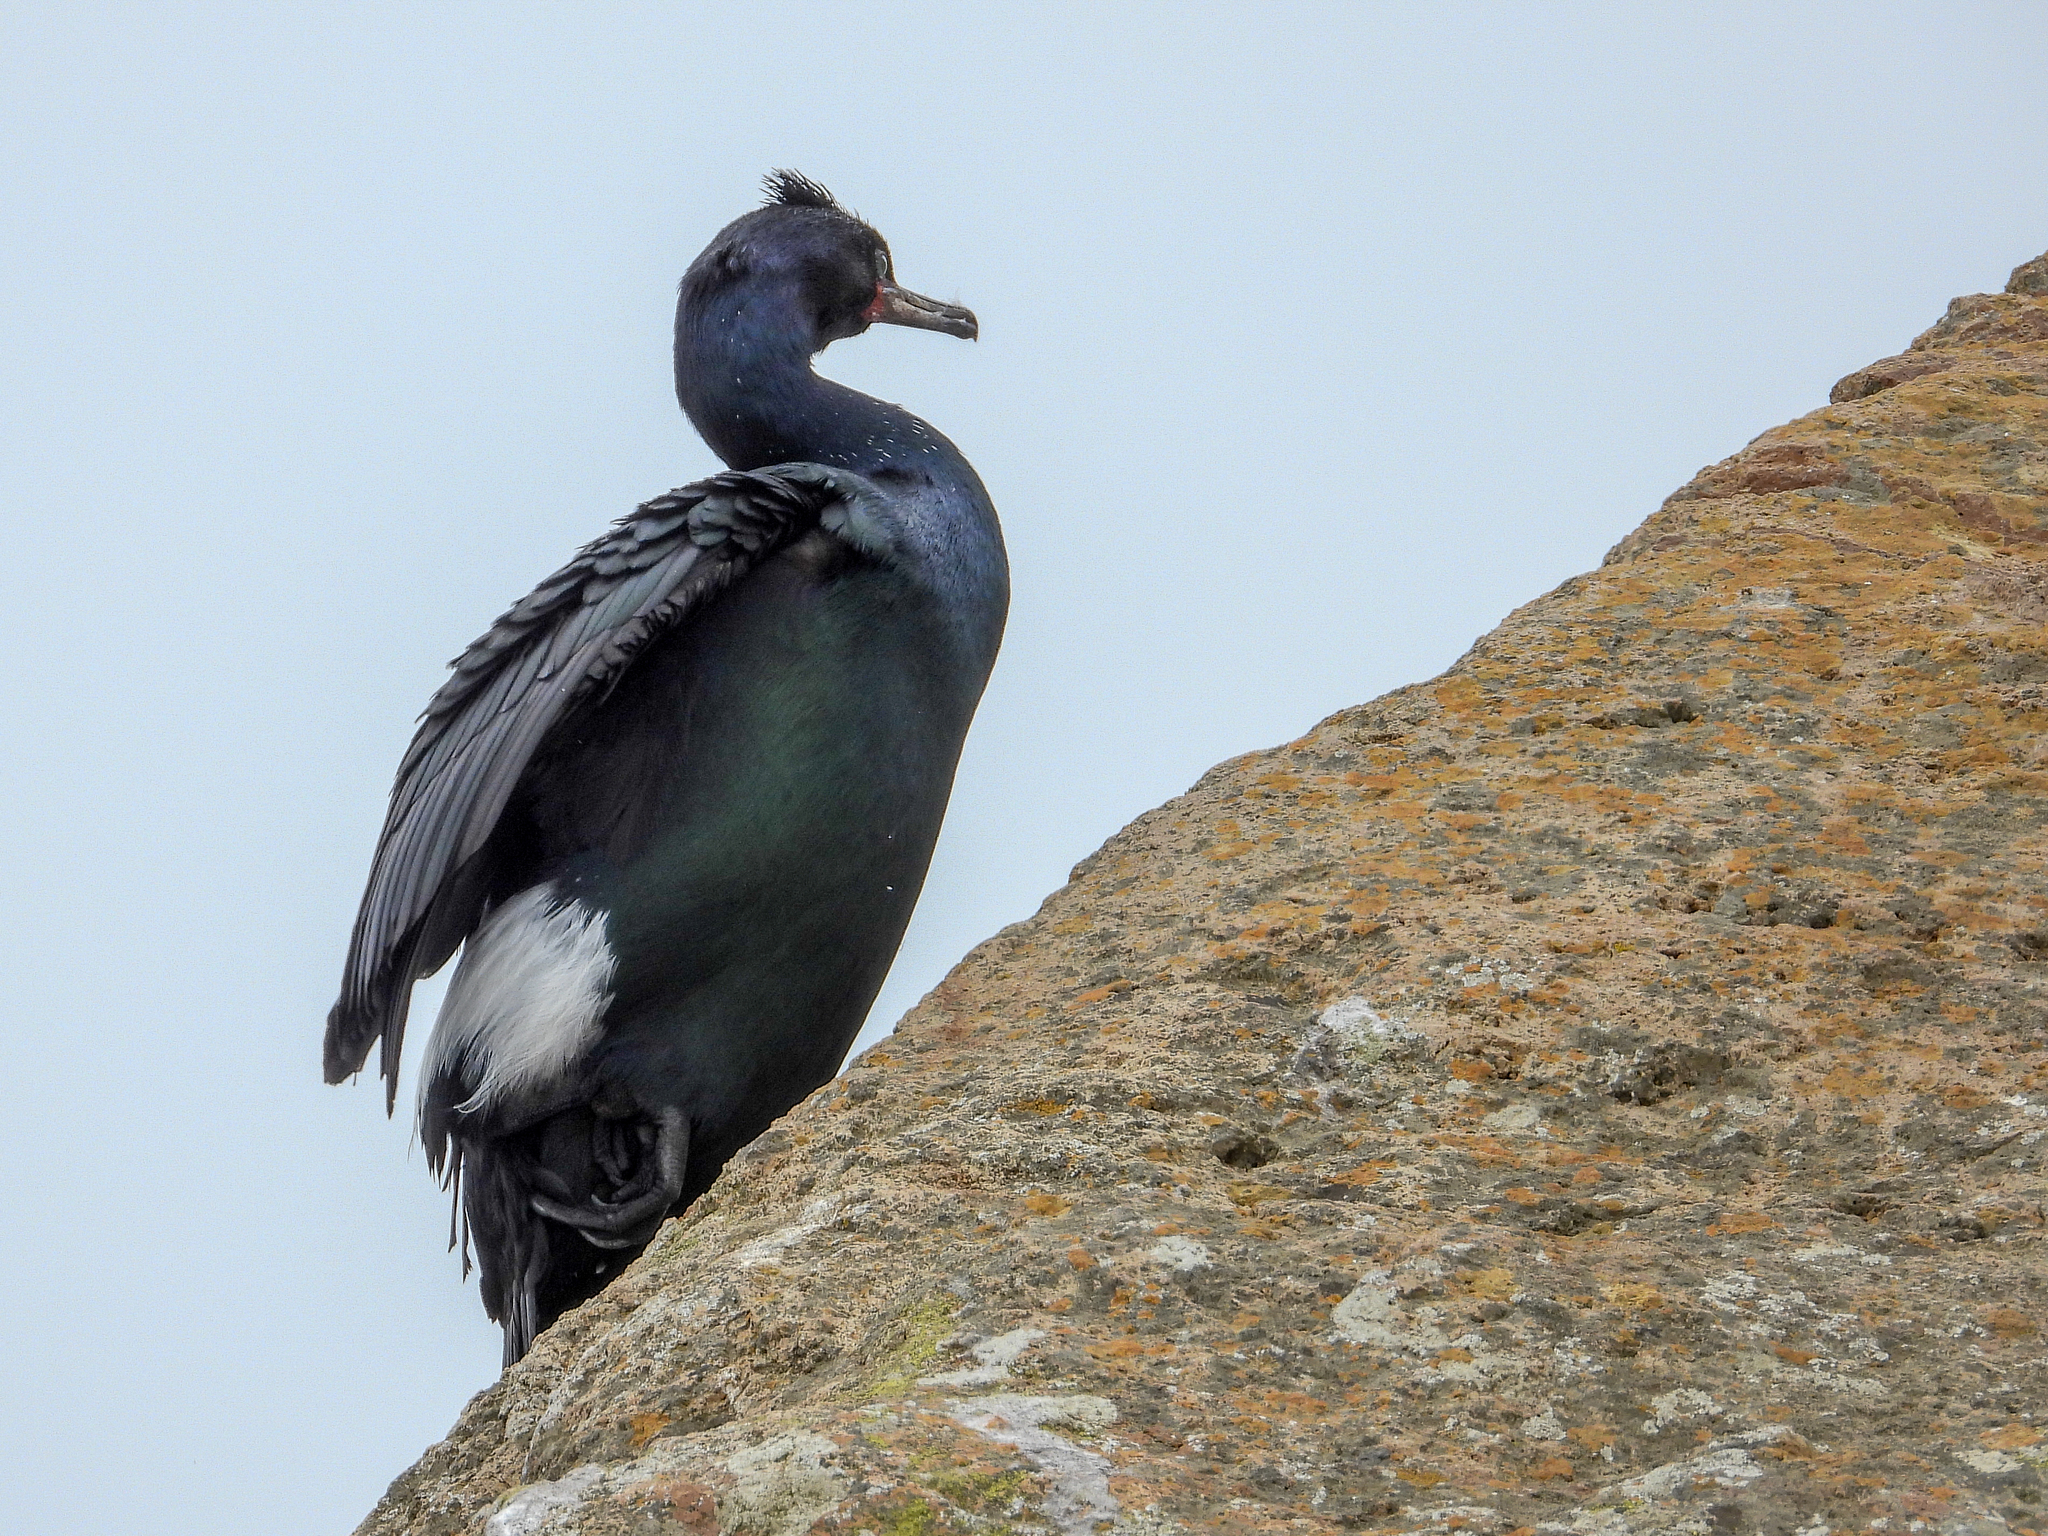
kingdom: Animalia
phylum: Chordata
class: Aves
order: Suliformes
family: Phalacrocoracidae
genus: Phalacrocorax
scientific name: Phalacrocorax pelagicus
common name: Pelagic cormorant
